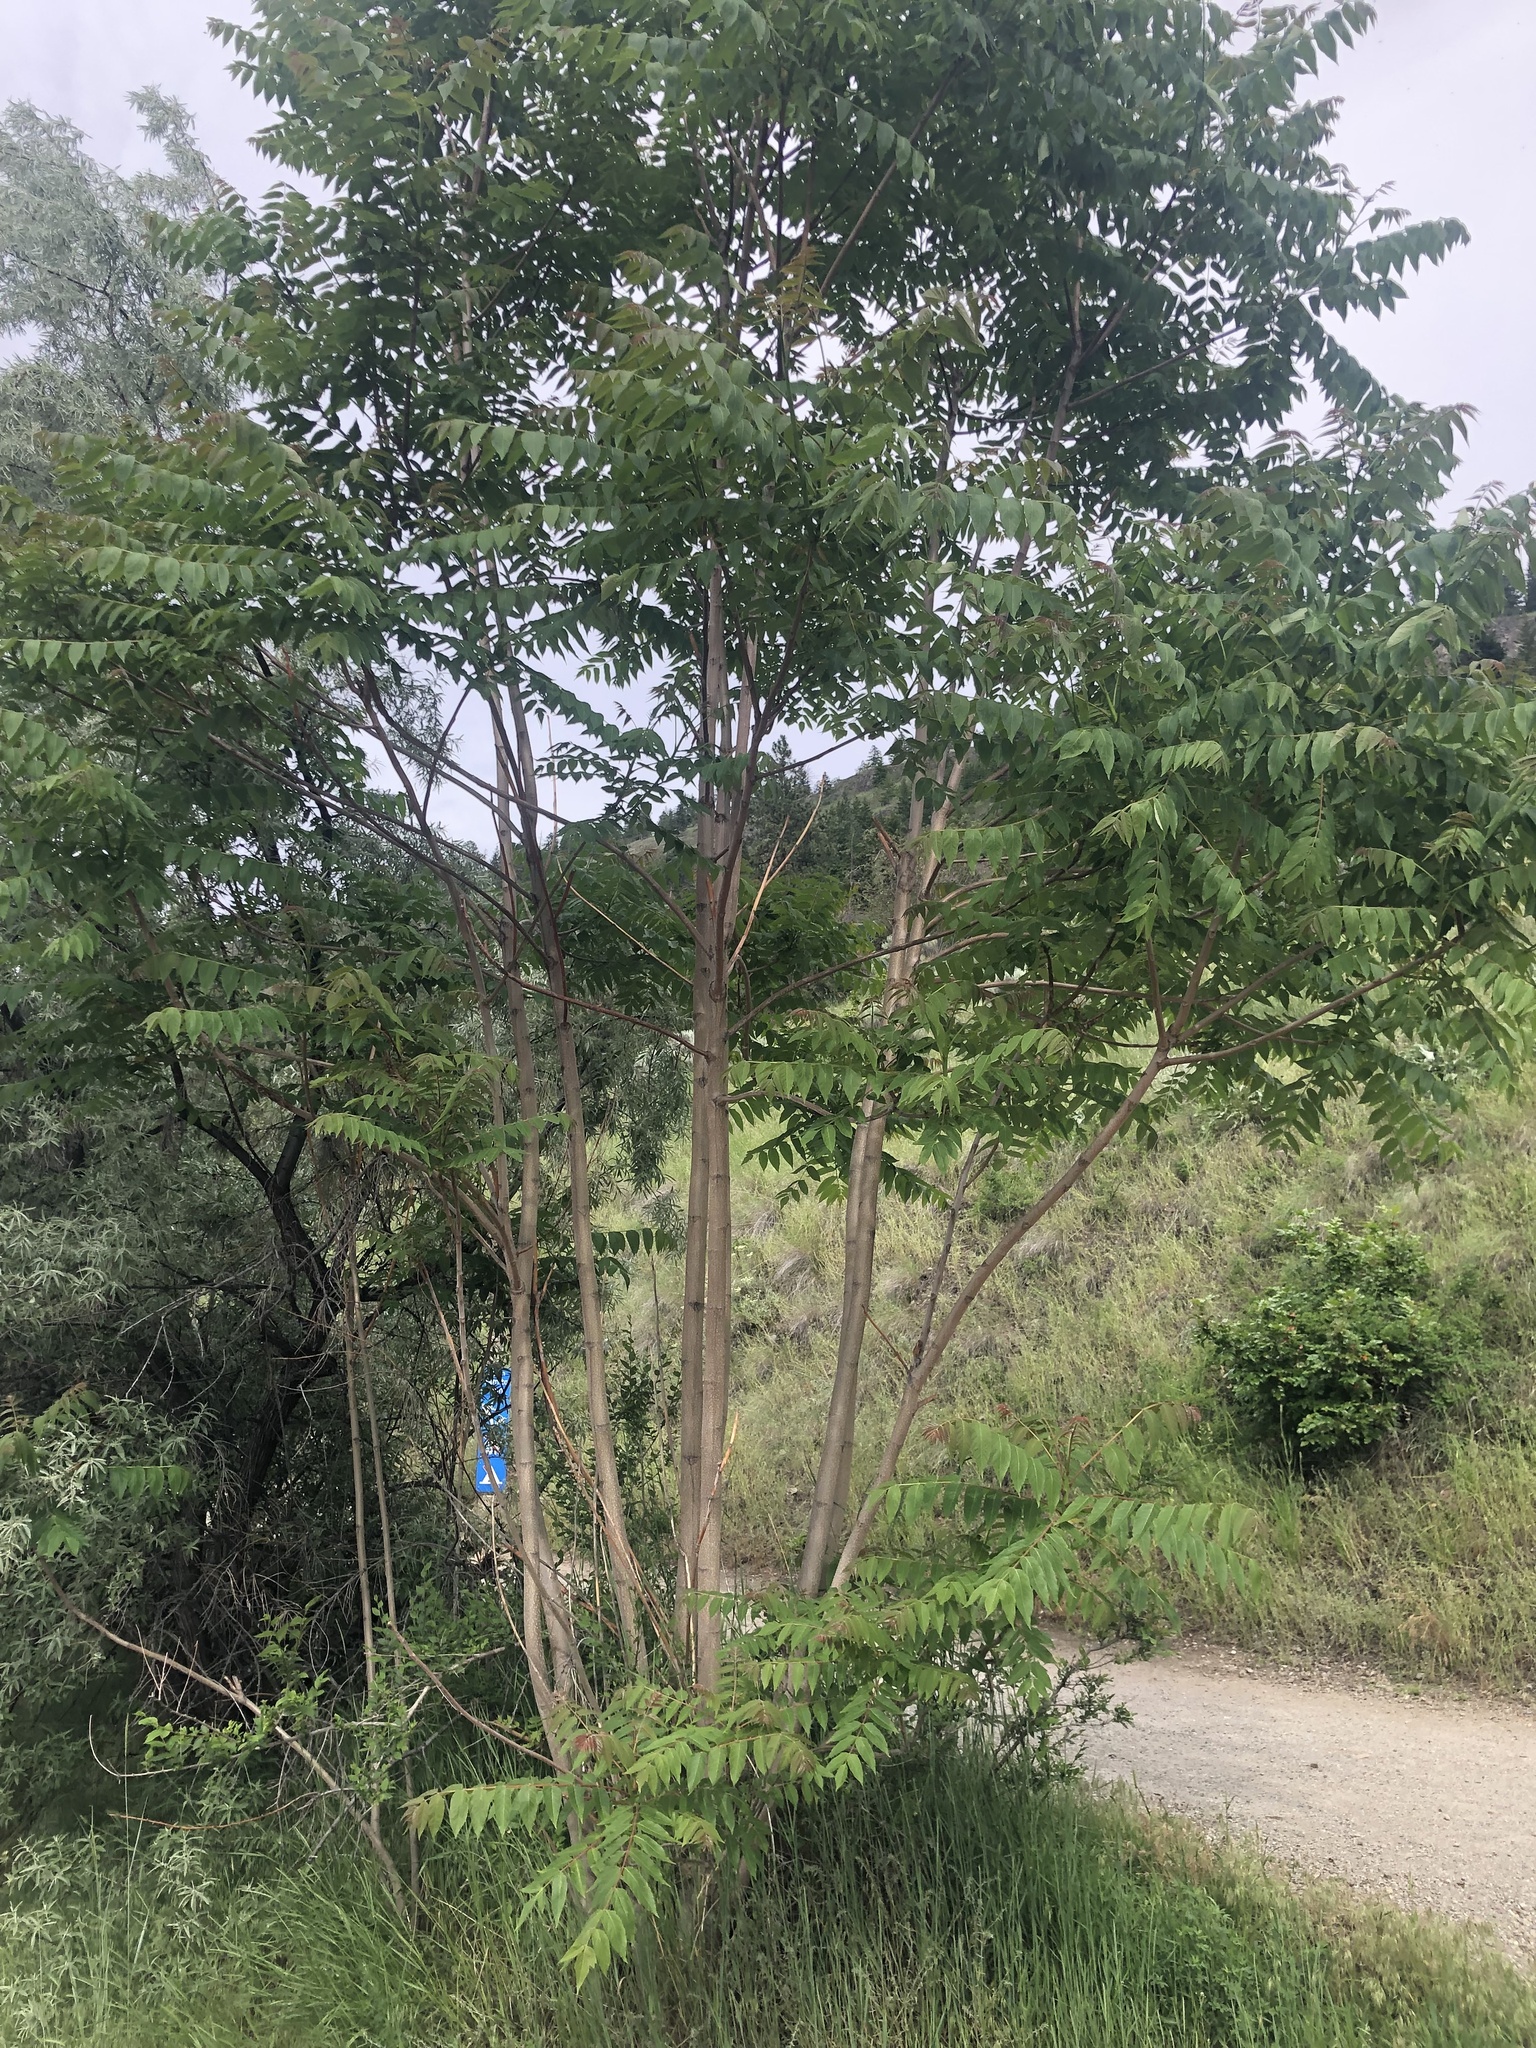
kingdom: Plantae
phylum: Tracheophyta
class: Magnoliopsida
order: Sapindales
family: Simaroubaceae
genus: Ailanthus
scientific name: Ailanthus altissima
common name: Tree-of-heaven
